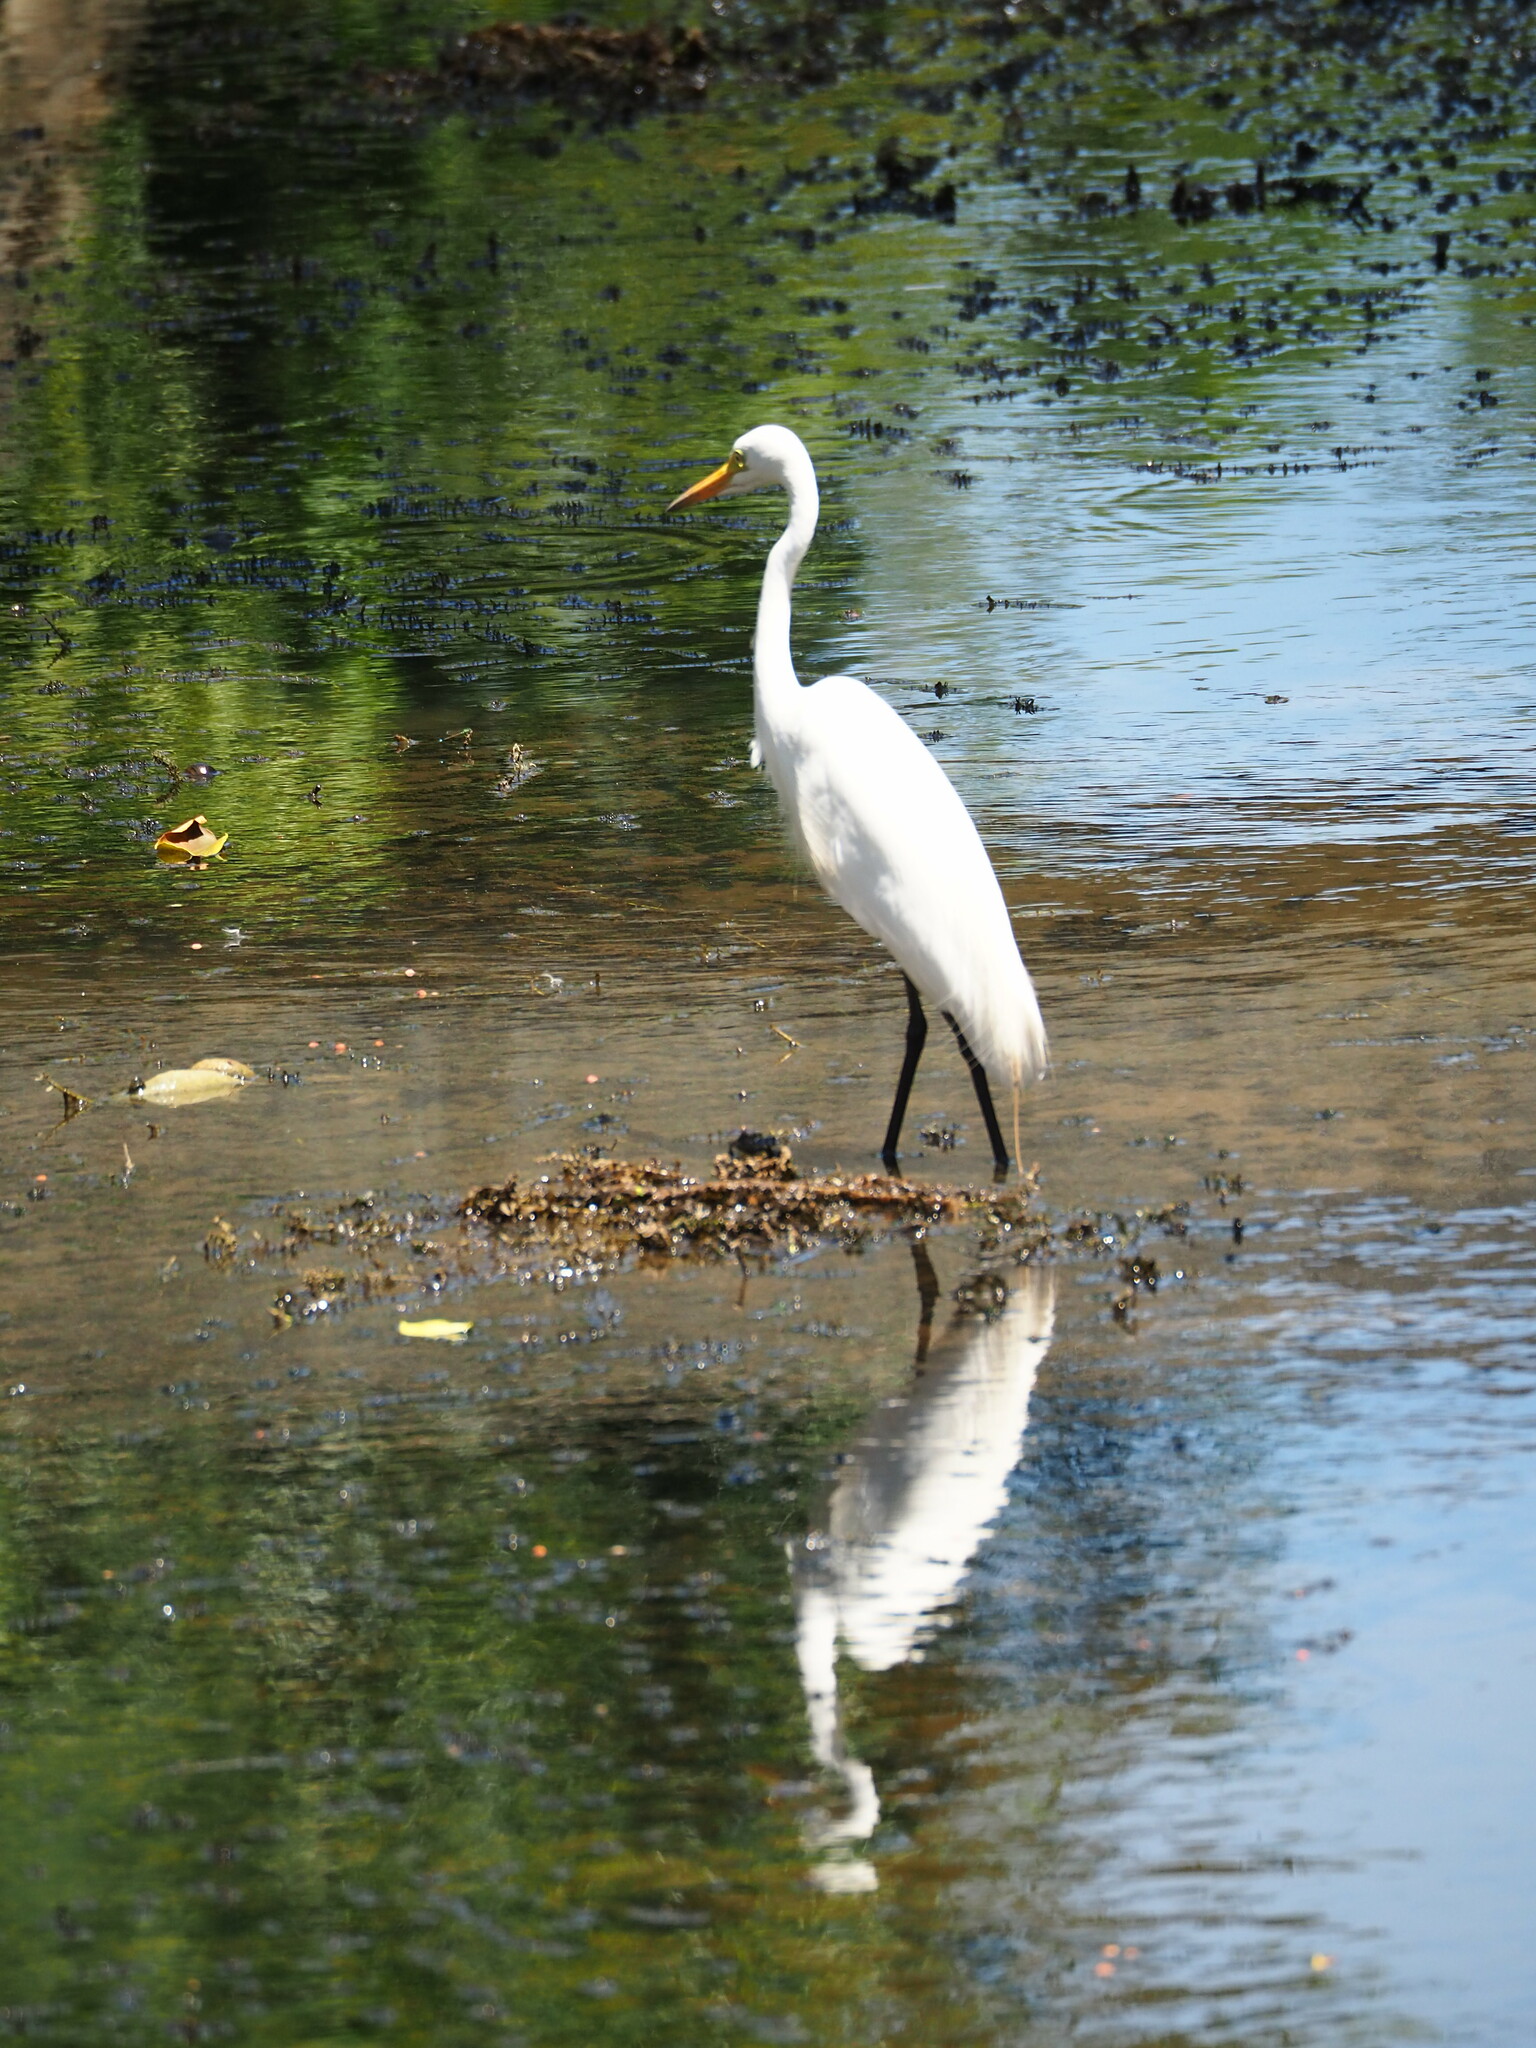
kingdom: Animalia
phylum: Chordata
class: Aves
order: Pelecaniformes
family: Ardeidae
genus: Ardea
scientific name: Ardea alba
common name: Great egret
